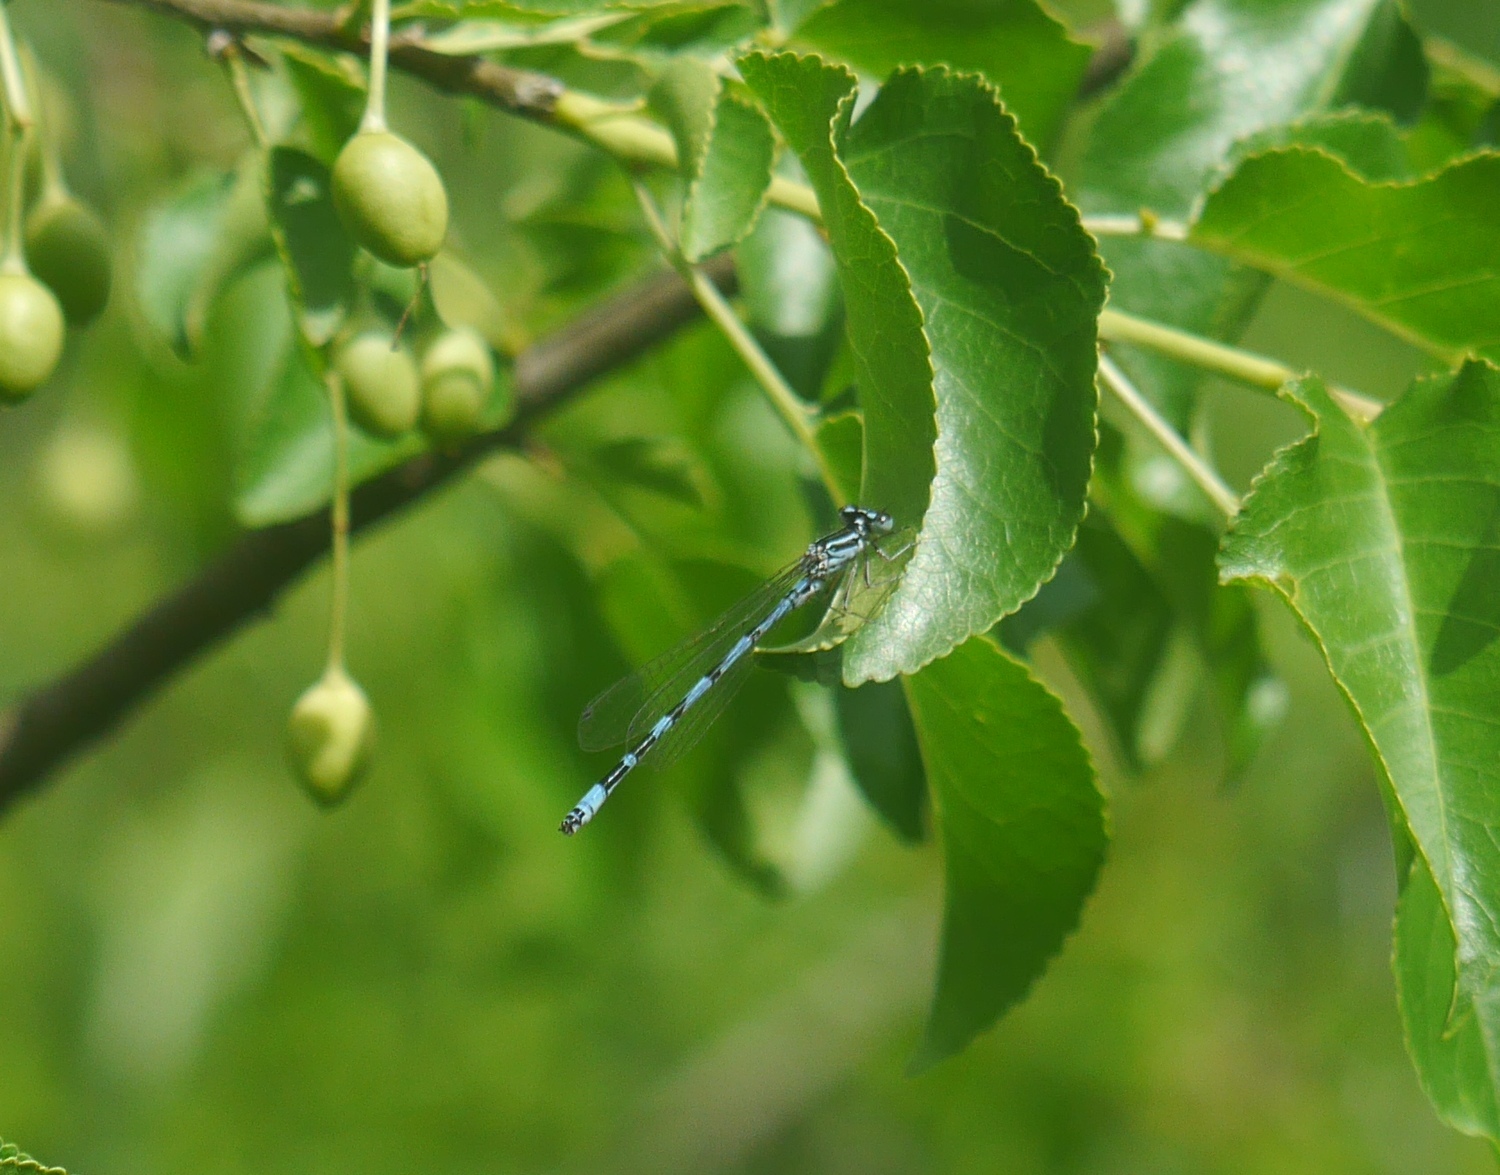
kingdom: Animalia
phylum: Arthropoda
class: Insecta
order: Odonata
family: Coenagrionidae
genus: Coenagrion
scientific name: Coenagrion ornatum
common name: Ornate bluet
